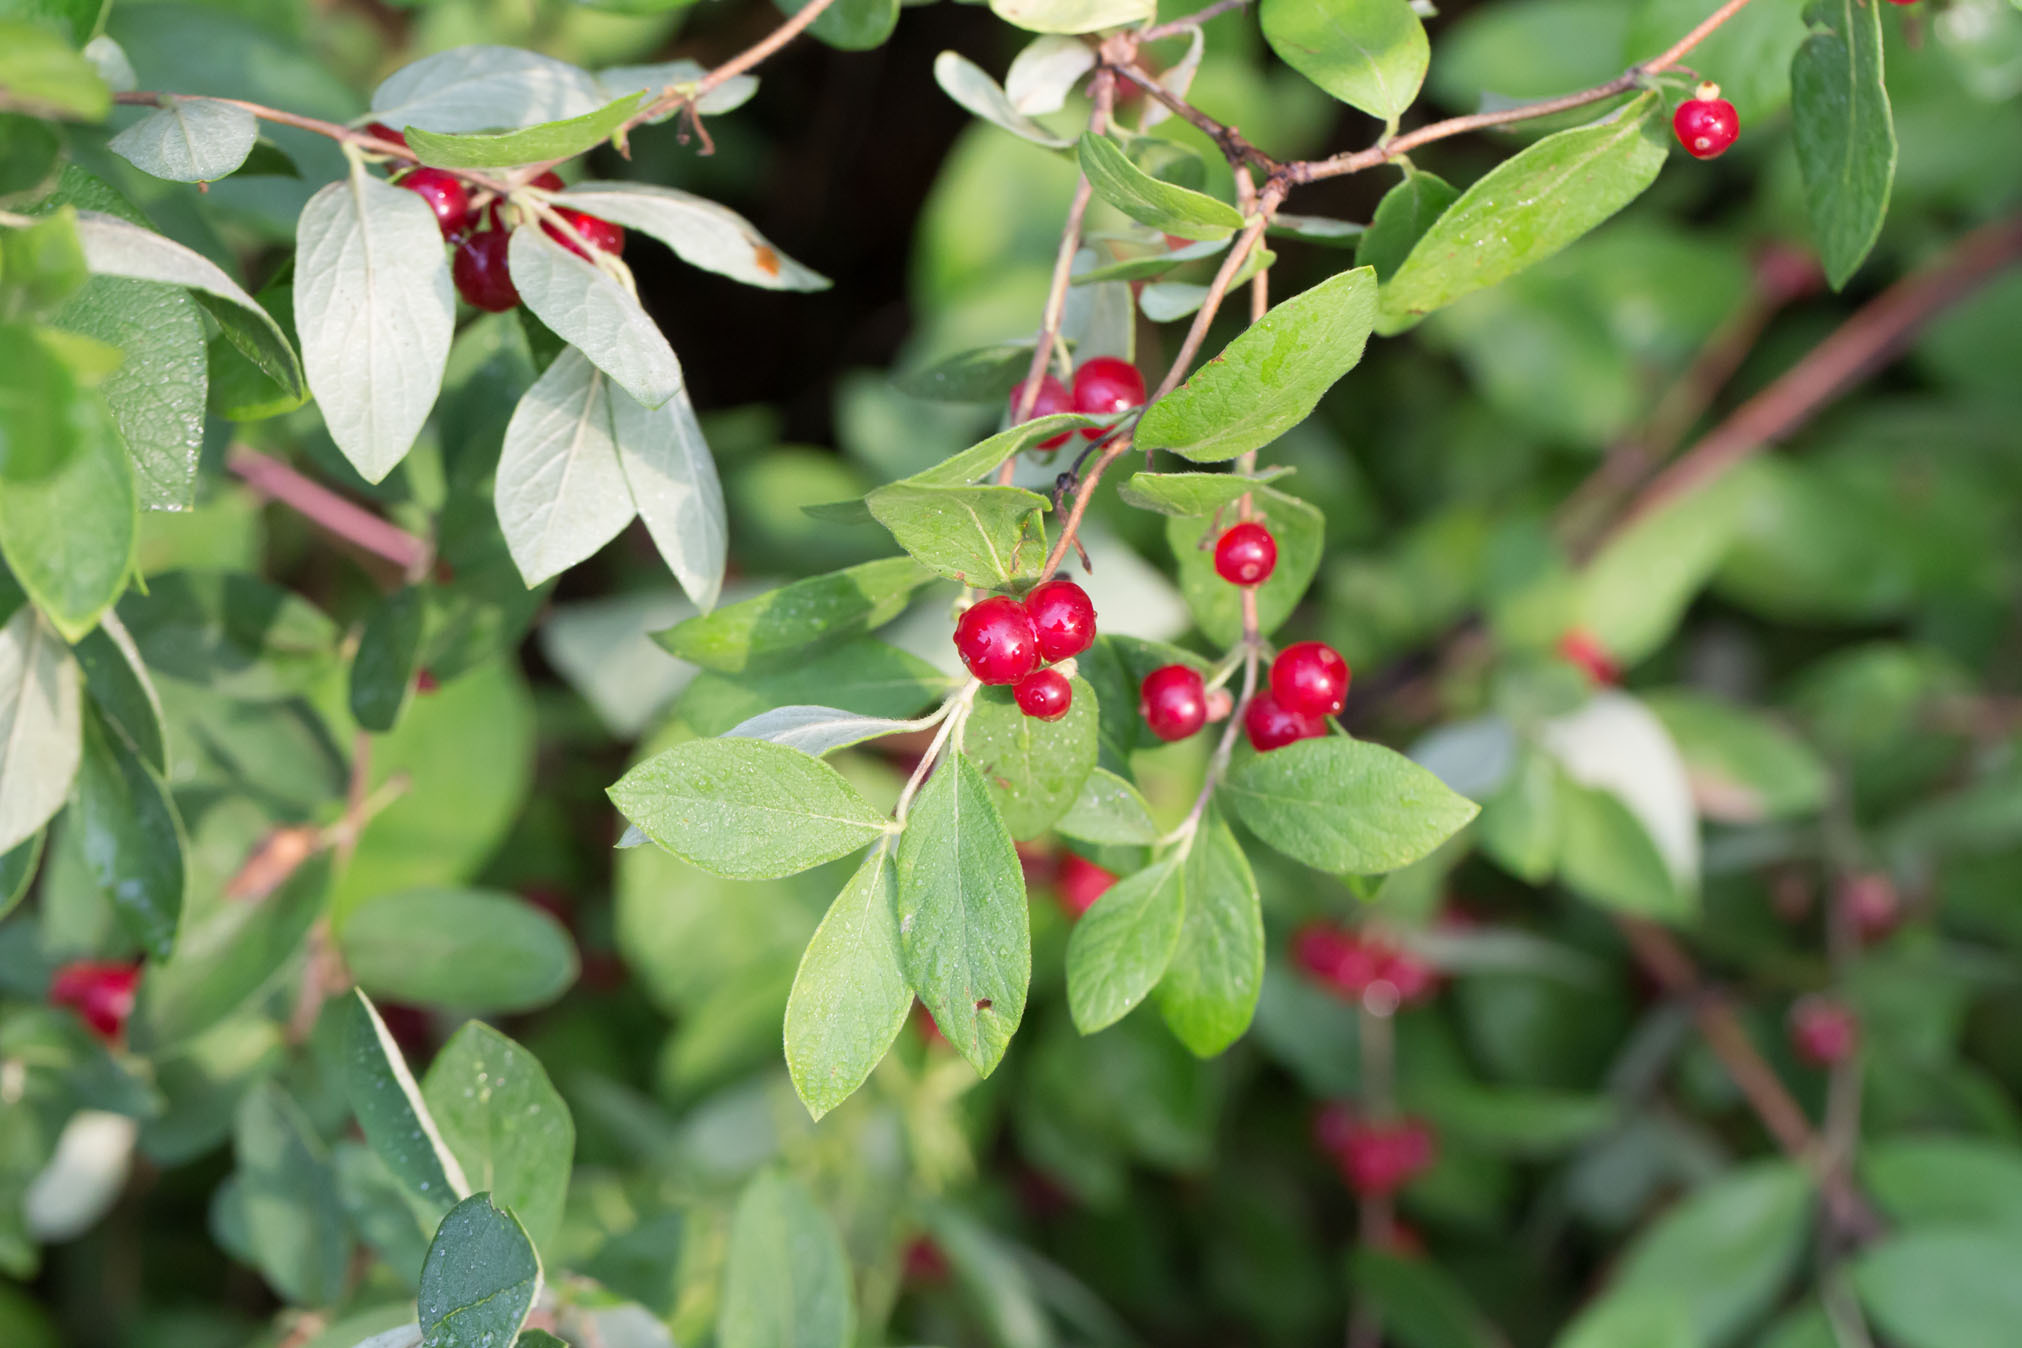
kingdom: Plantae
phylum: Tracheophyta
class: Magnoliopsida
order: Dipsacales
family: Caprifoliaceae
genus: Lonicera
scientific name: Lonicera morrowii
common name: Morrow's honeysuckle
